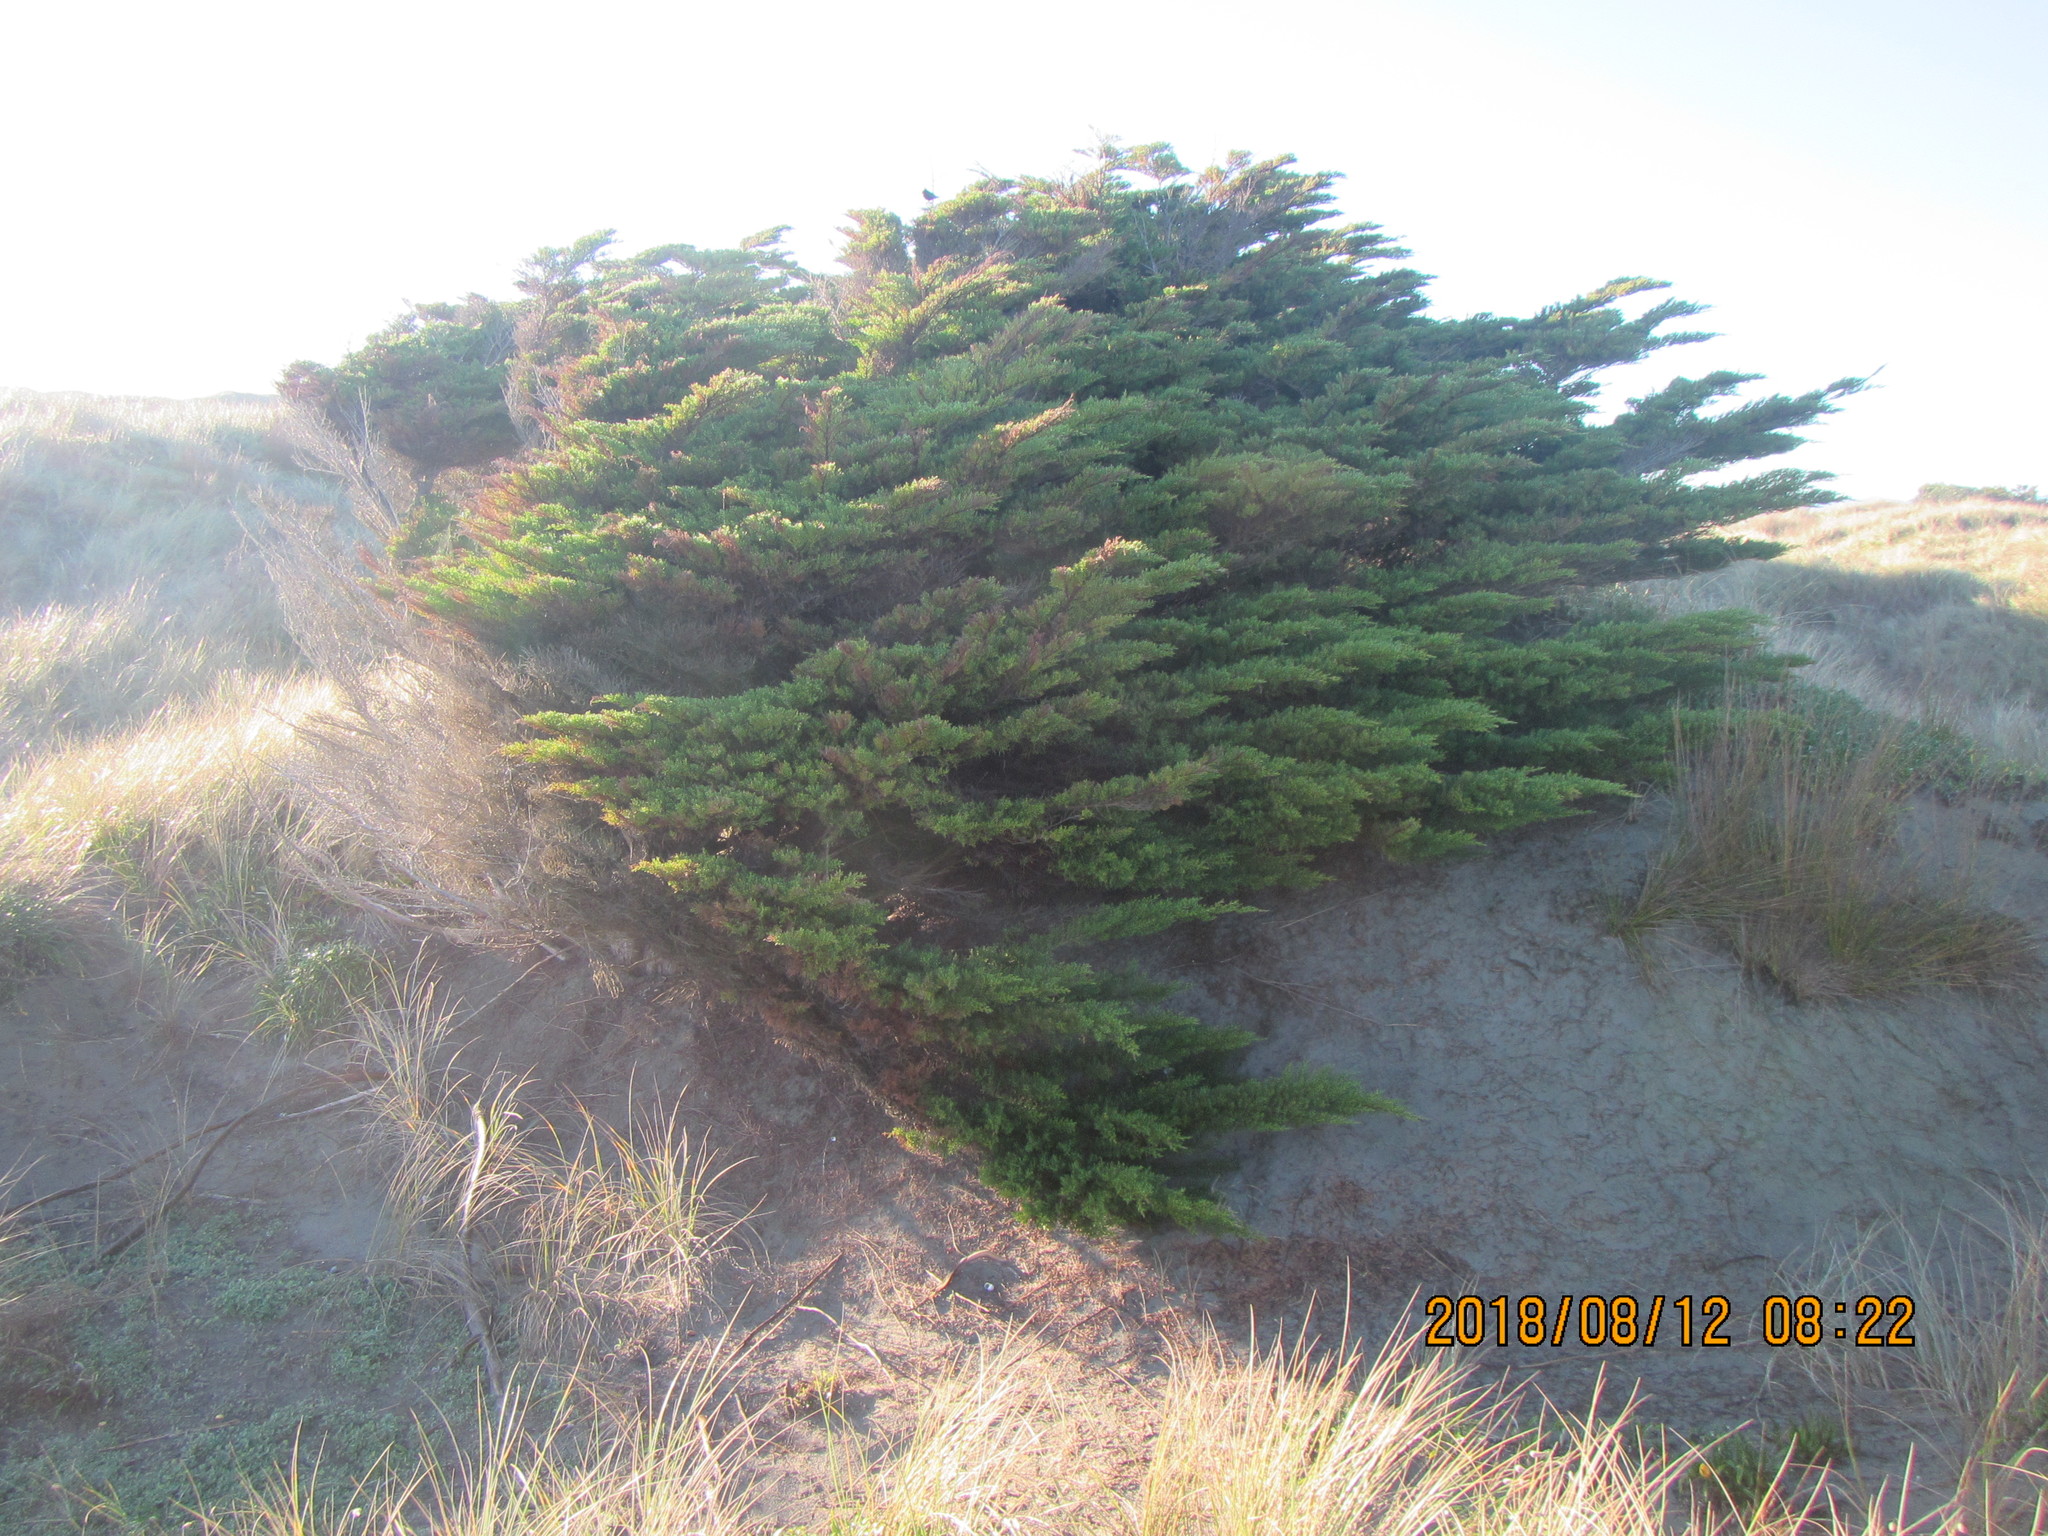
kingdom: Plantae
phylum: Tracheophyta
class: Pinopsida
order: Pinales
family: Cupressaceae
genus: Cupressus
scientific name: Cupressus macrocarpa
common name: Monterey cypress
